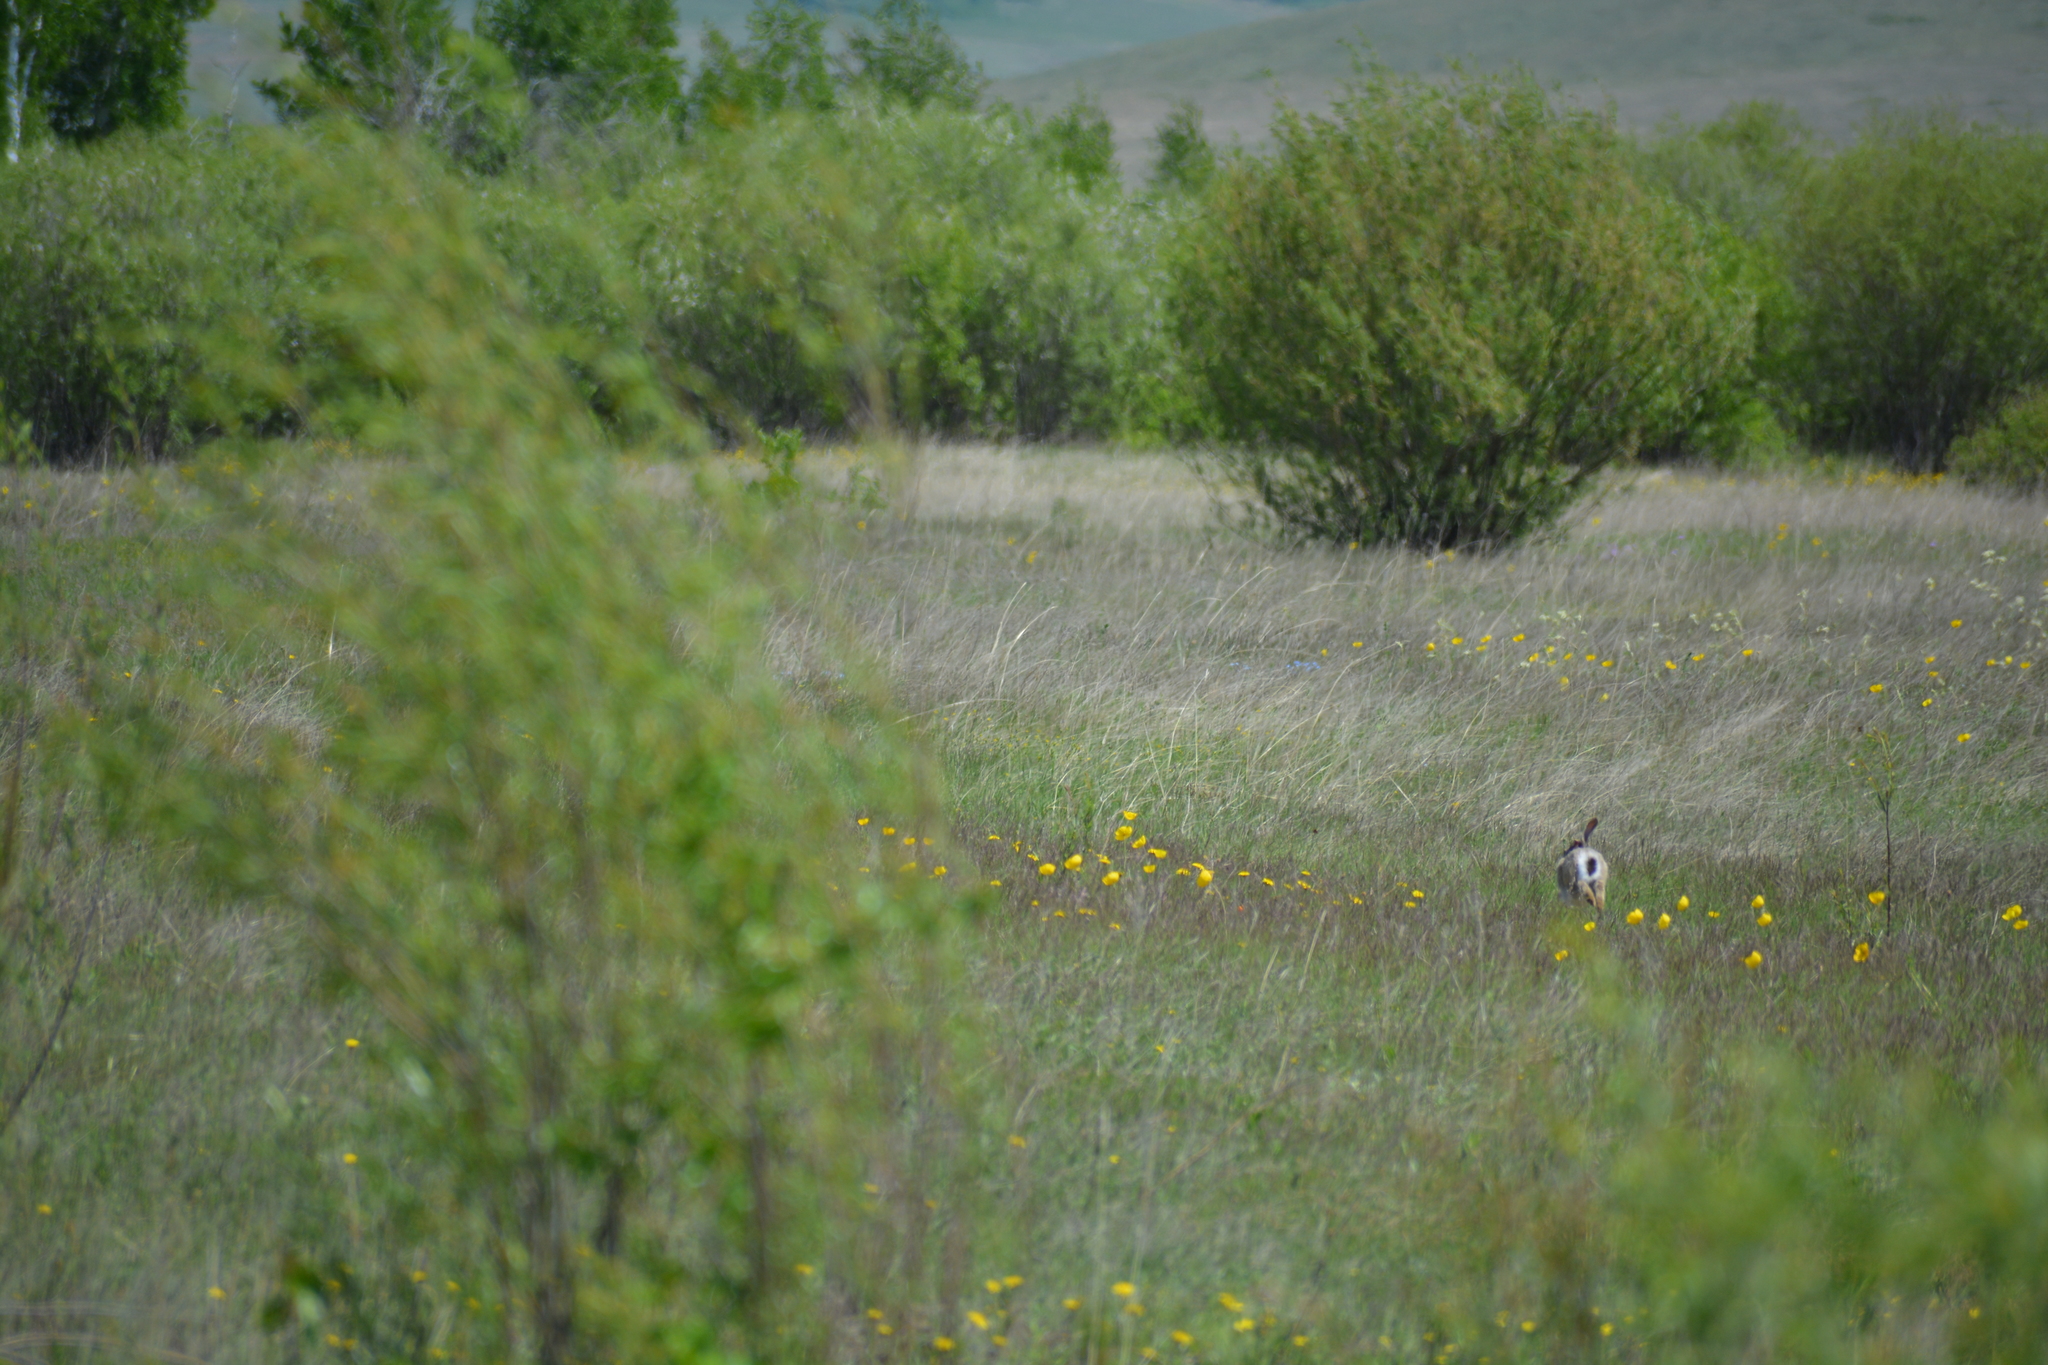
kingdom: Animalia
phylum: Chordata
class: Mammalia
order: Lagomorpha
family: Leporidae
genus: Lepus
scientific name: Lepus timidus
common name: Mountain hare
